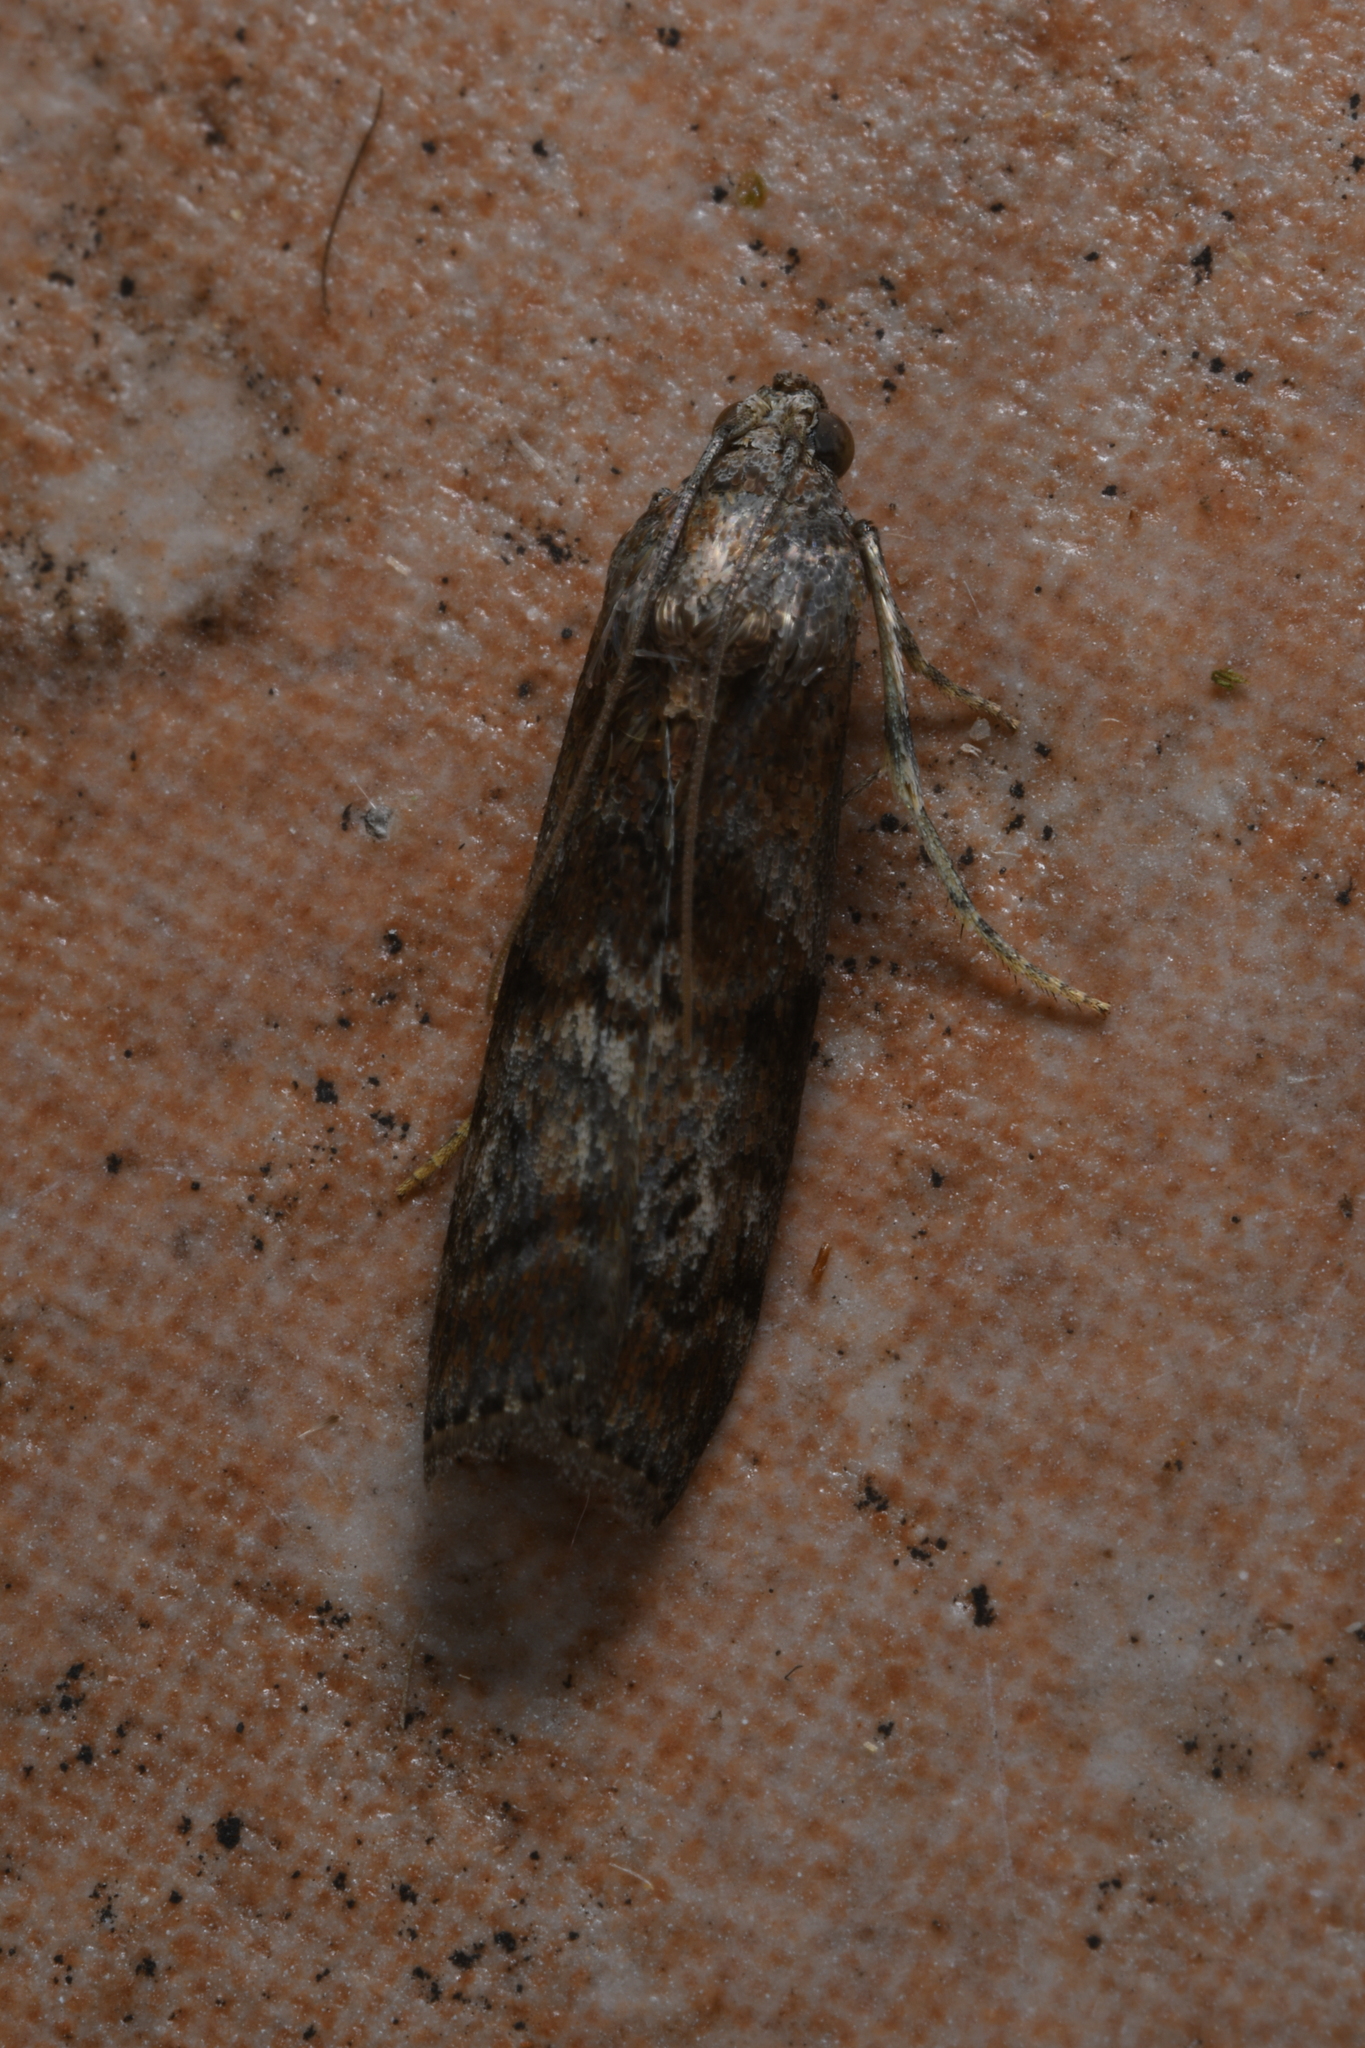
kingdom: Animalia
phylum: Arthropoda
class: Insecta
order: Lepidoptera
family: Pyralidae
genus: Phycita
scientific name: Phycita roborella
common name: Dotted oak knot-horn
